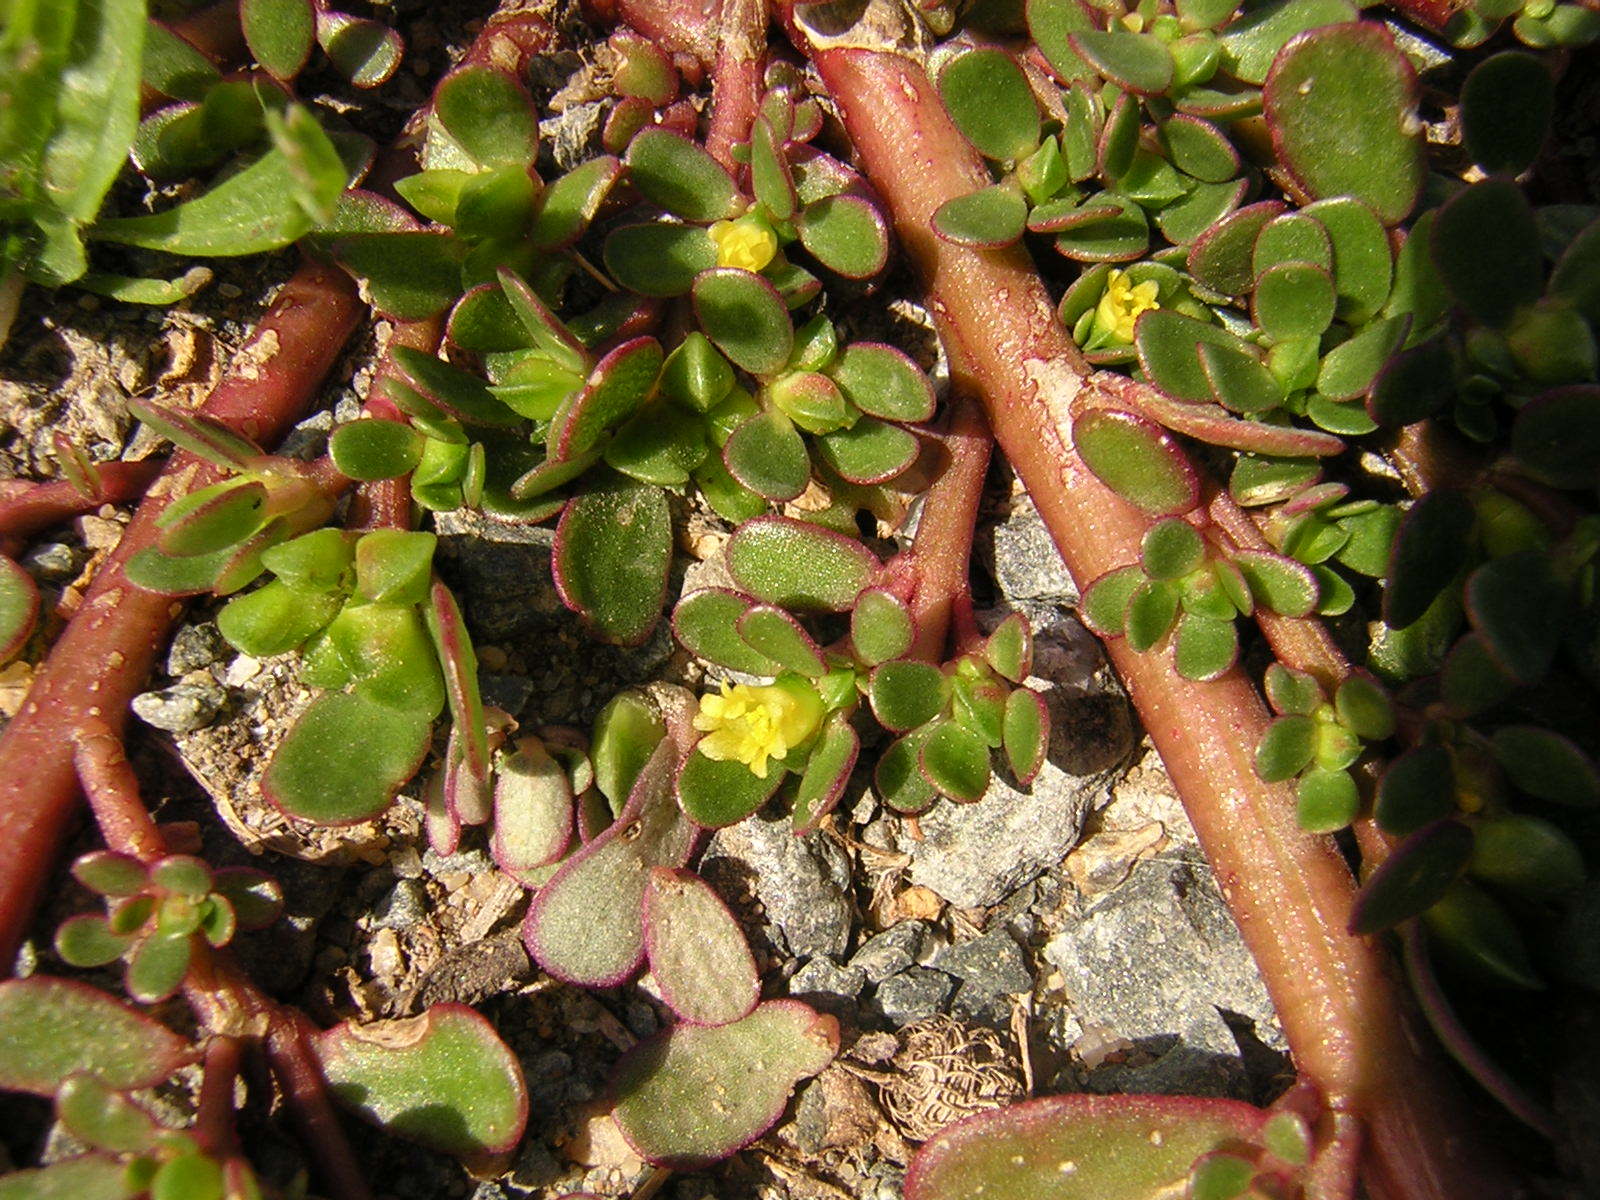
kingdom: Plantae
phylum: Tracheophyta
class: Magnoliopsida
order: Caryophyllales
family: Portulacaceae
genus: Portulaca
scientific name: Portulaca oleracea
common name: Common purslane
